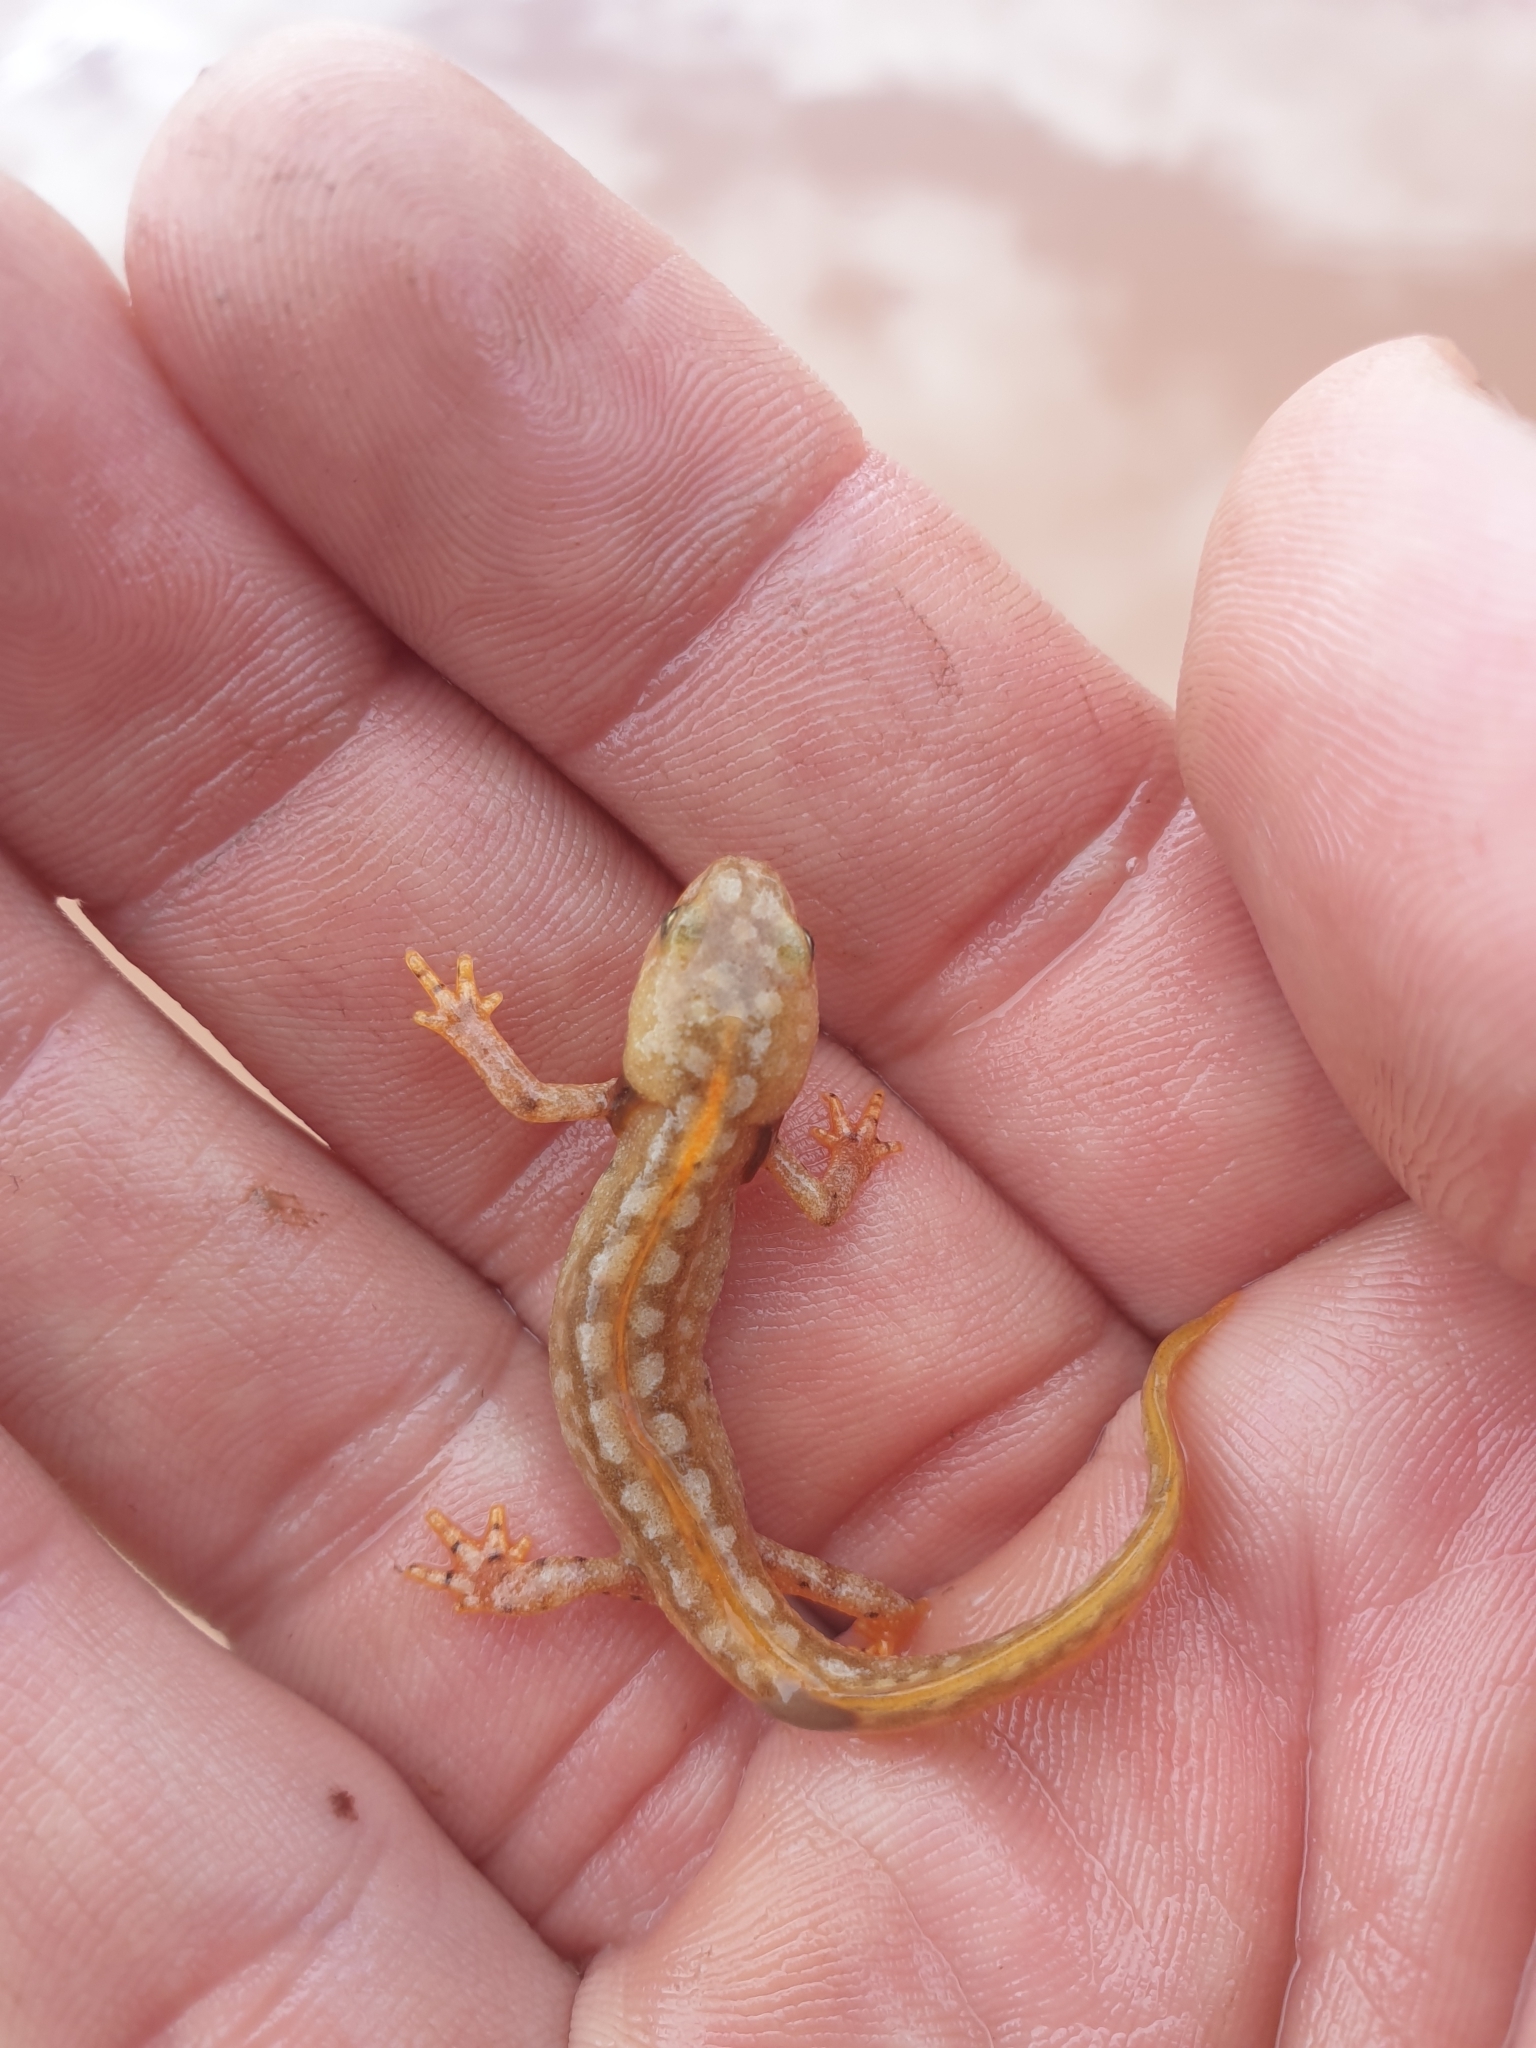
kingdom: Animalia
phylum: Chordata
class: Amphibia
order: Caudata
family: Salamandridae
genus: Ichthyosaura
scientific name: Ichthyosaura alpestris
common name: Alpine newt
